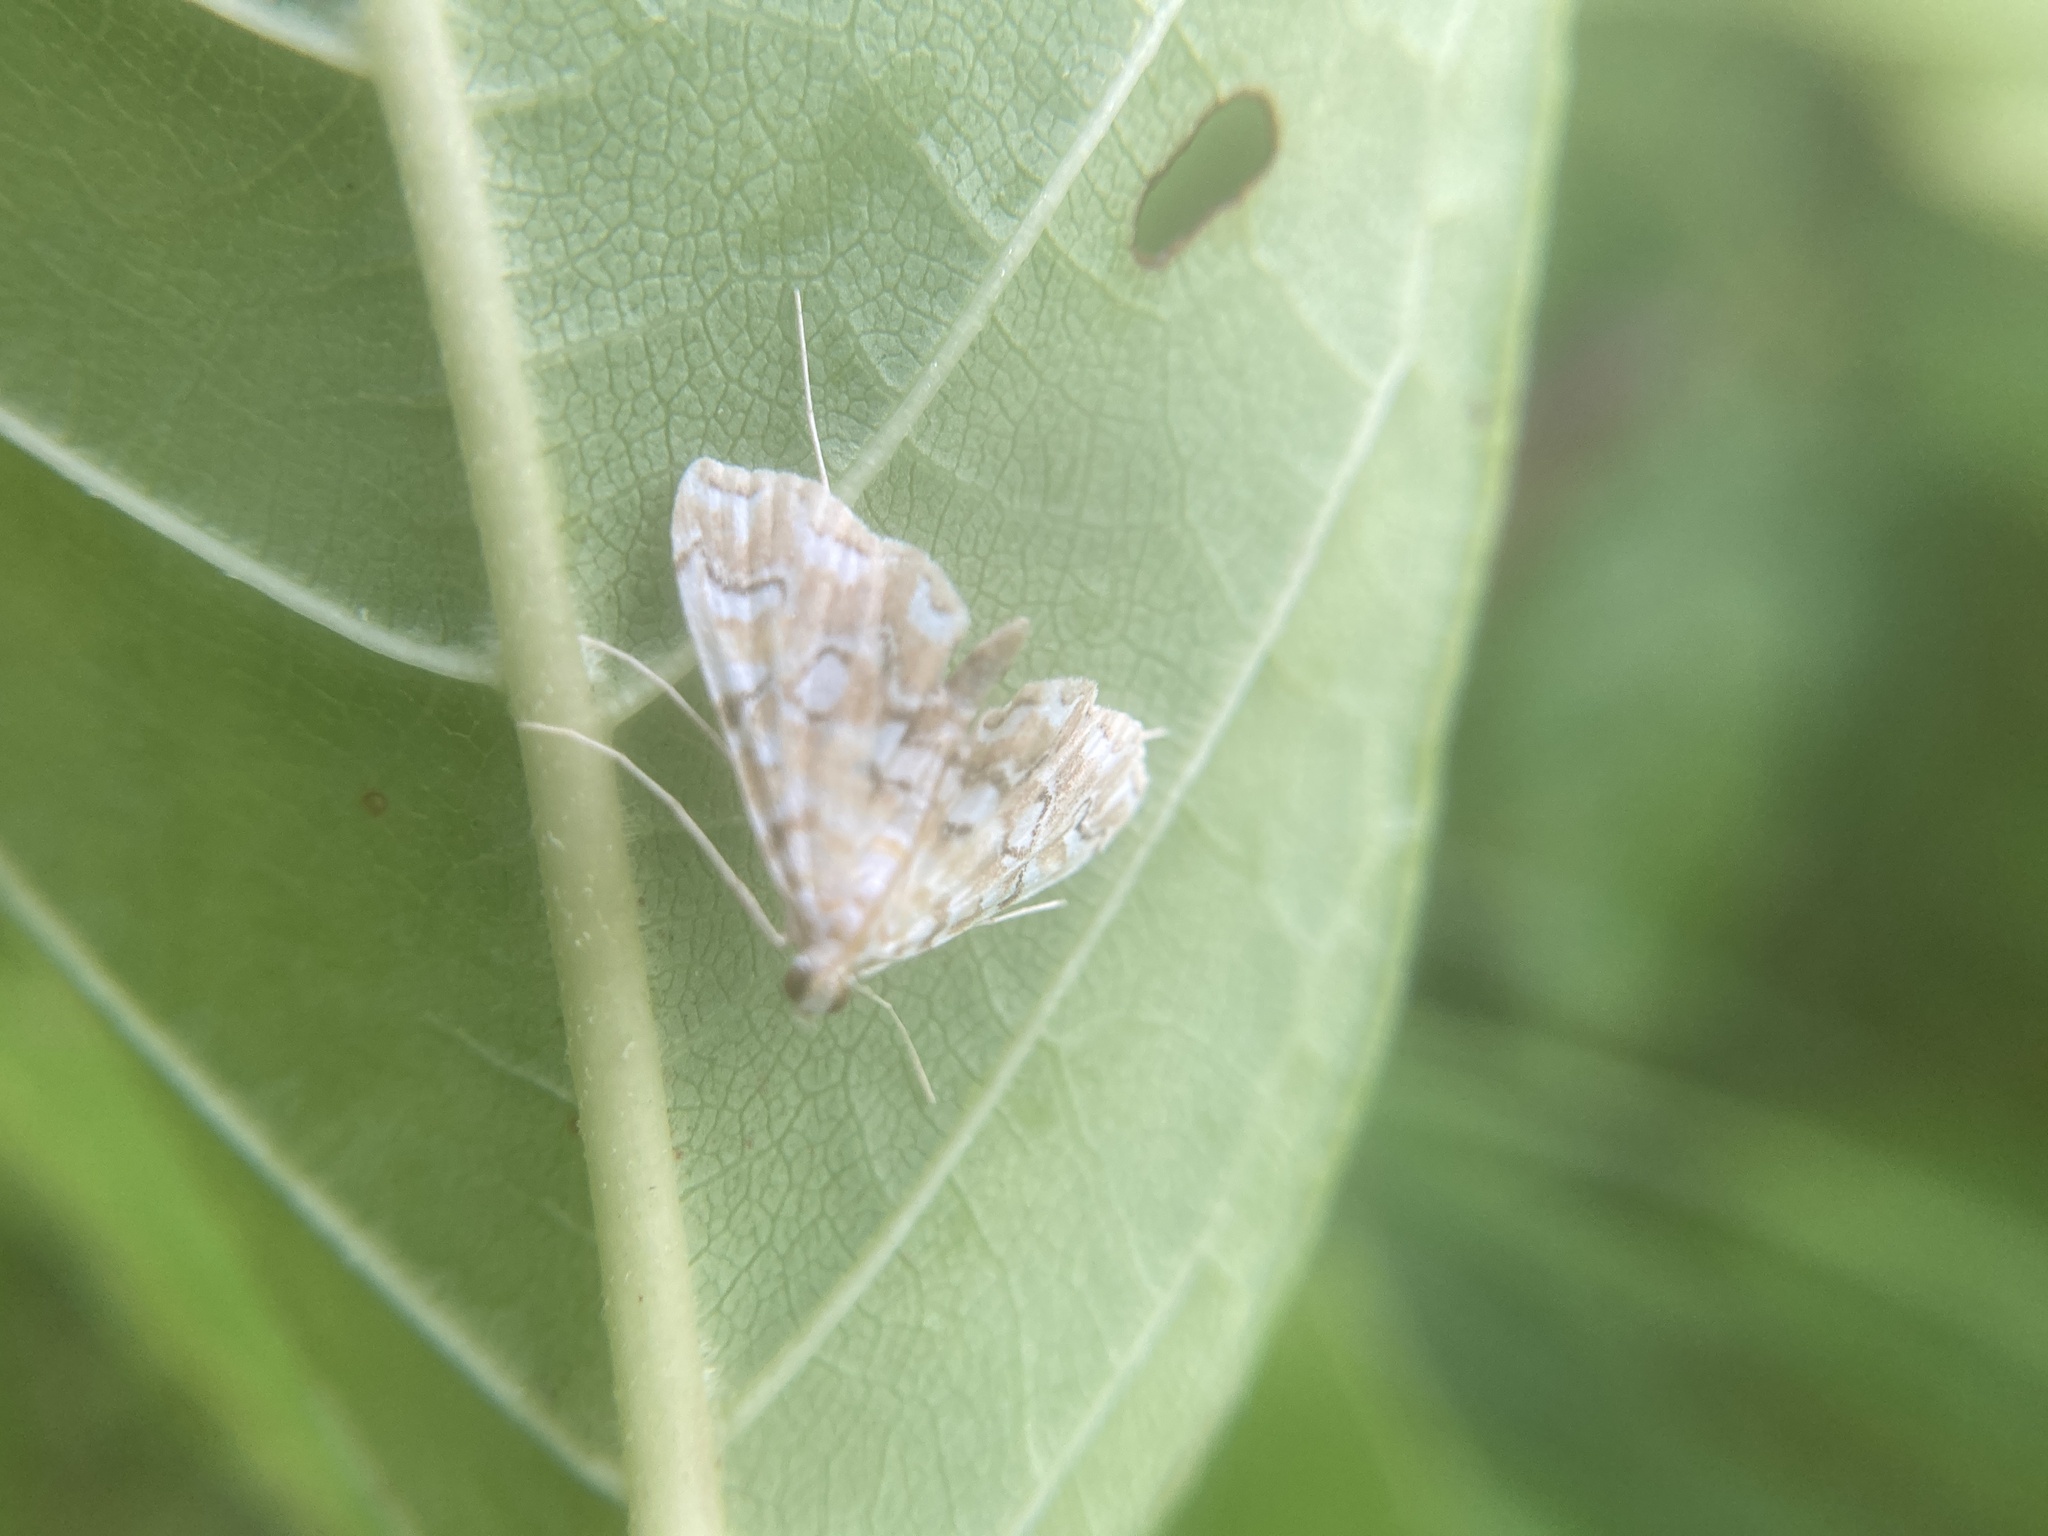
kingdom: Animalia
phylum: Arthropoda
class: Insecta
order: Lepidoptera
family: Crambidae
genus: Elophila
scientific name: Elophila icciusalis
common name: Pondside pyralid moth
